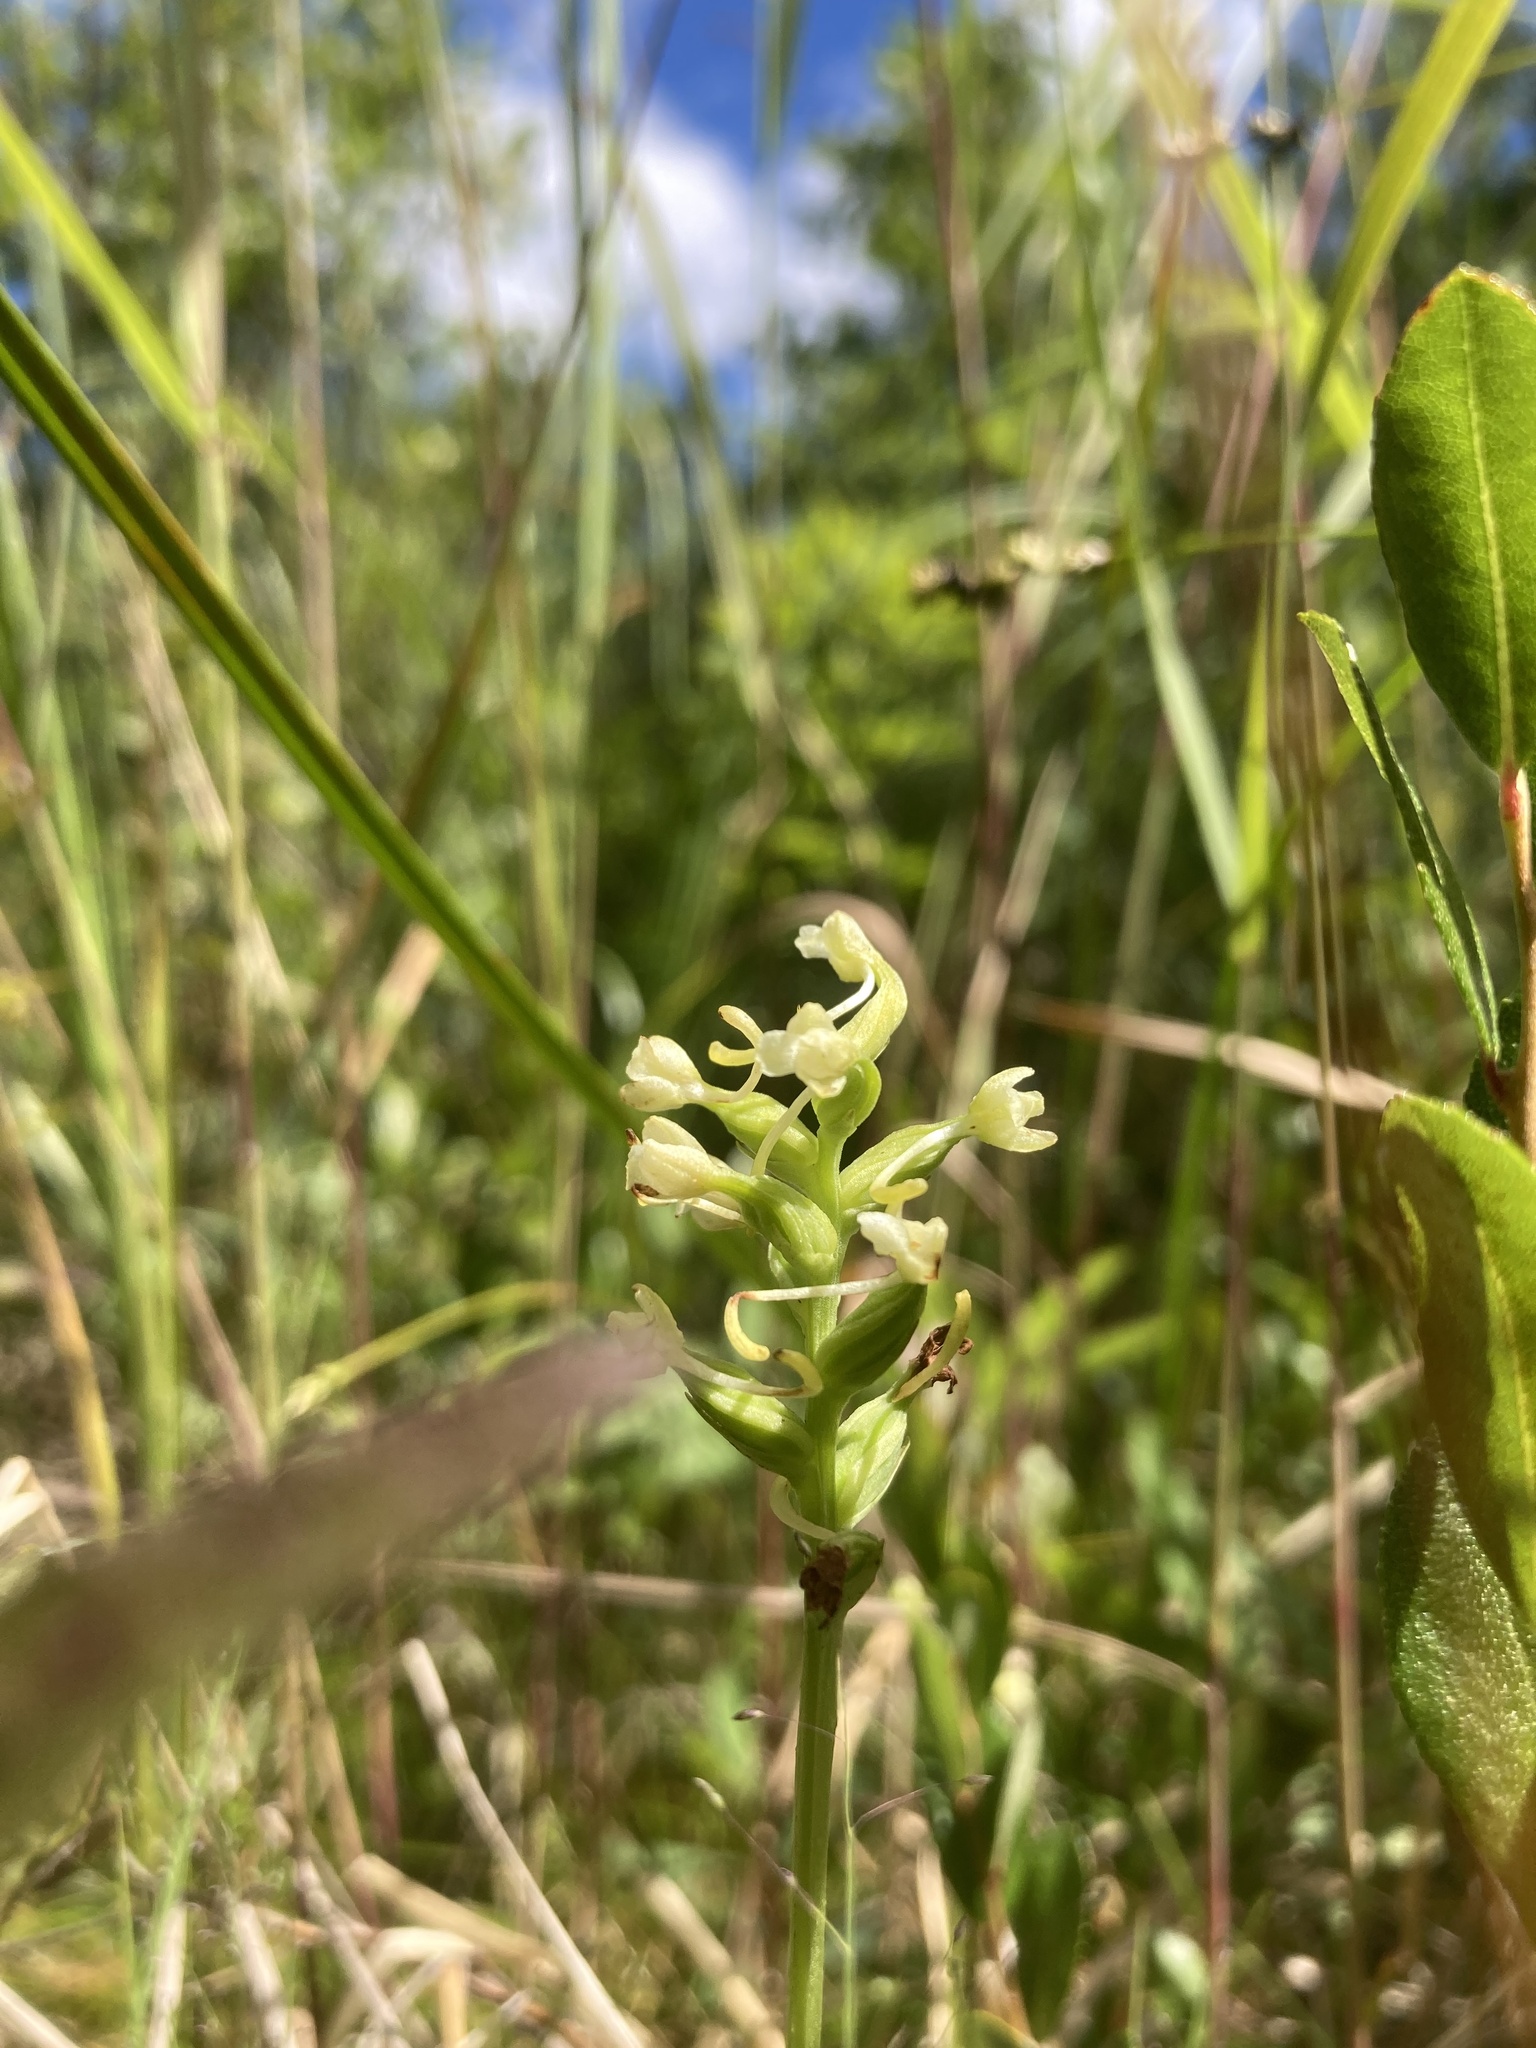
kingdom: Plantae
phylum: Tracheophyta
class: Liliopsida
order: Asparagales
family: Orchidaceae
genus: Platanthera
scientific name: Platanthera clavellata
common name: Club-spur orchid
